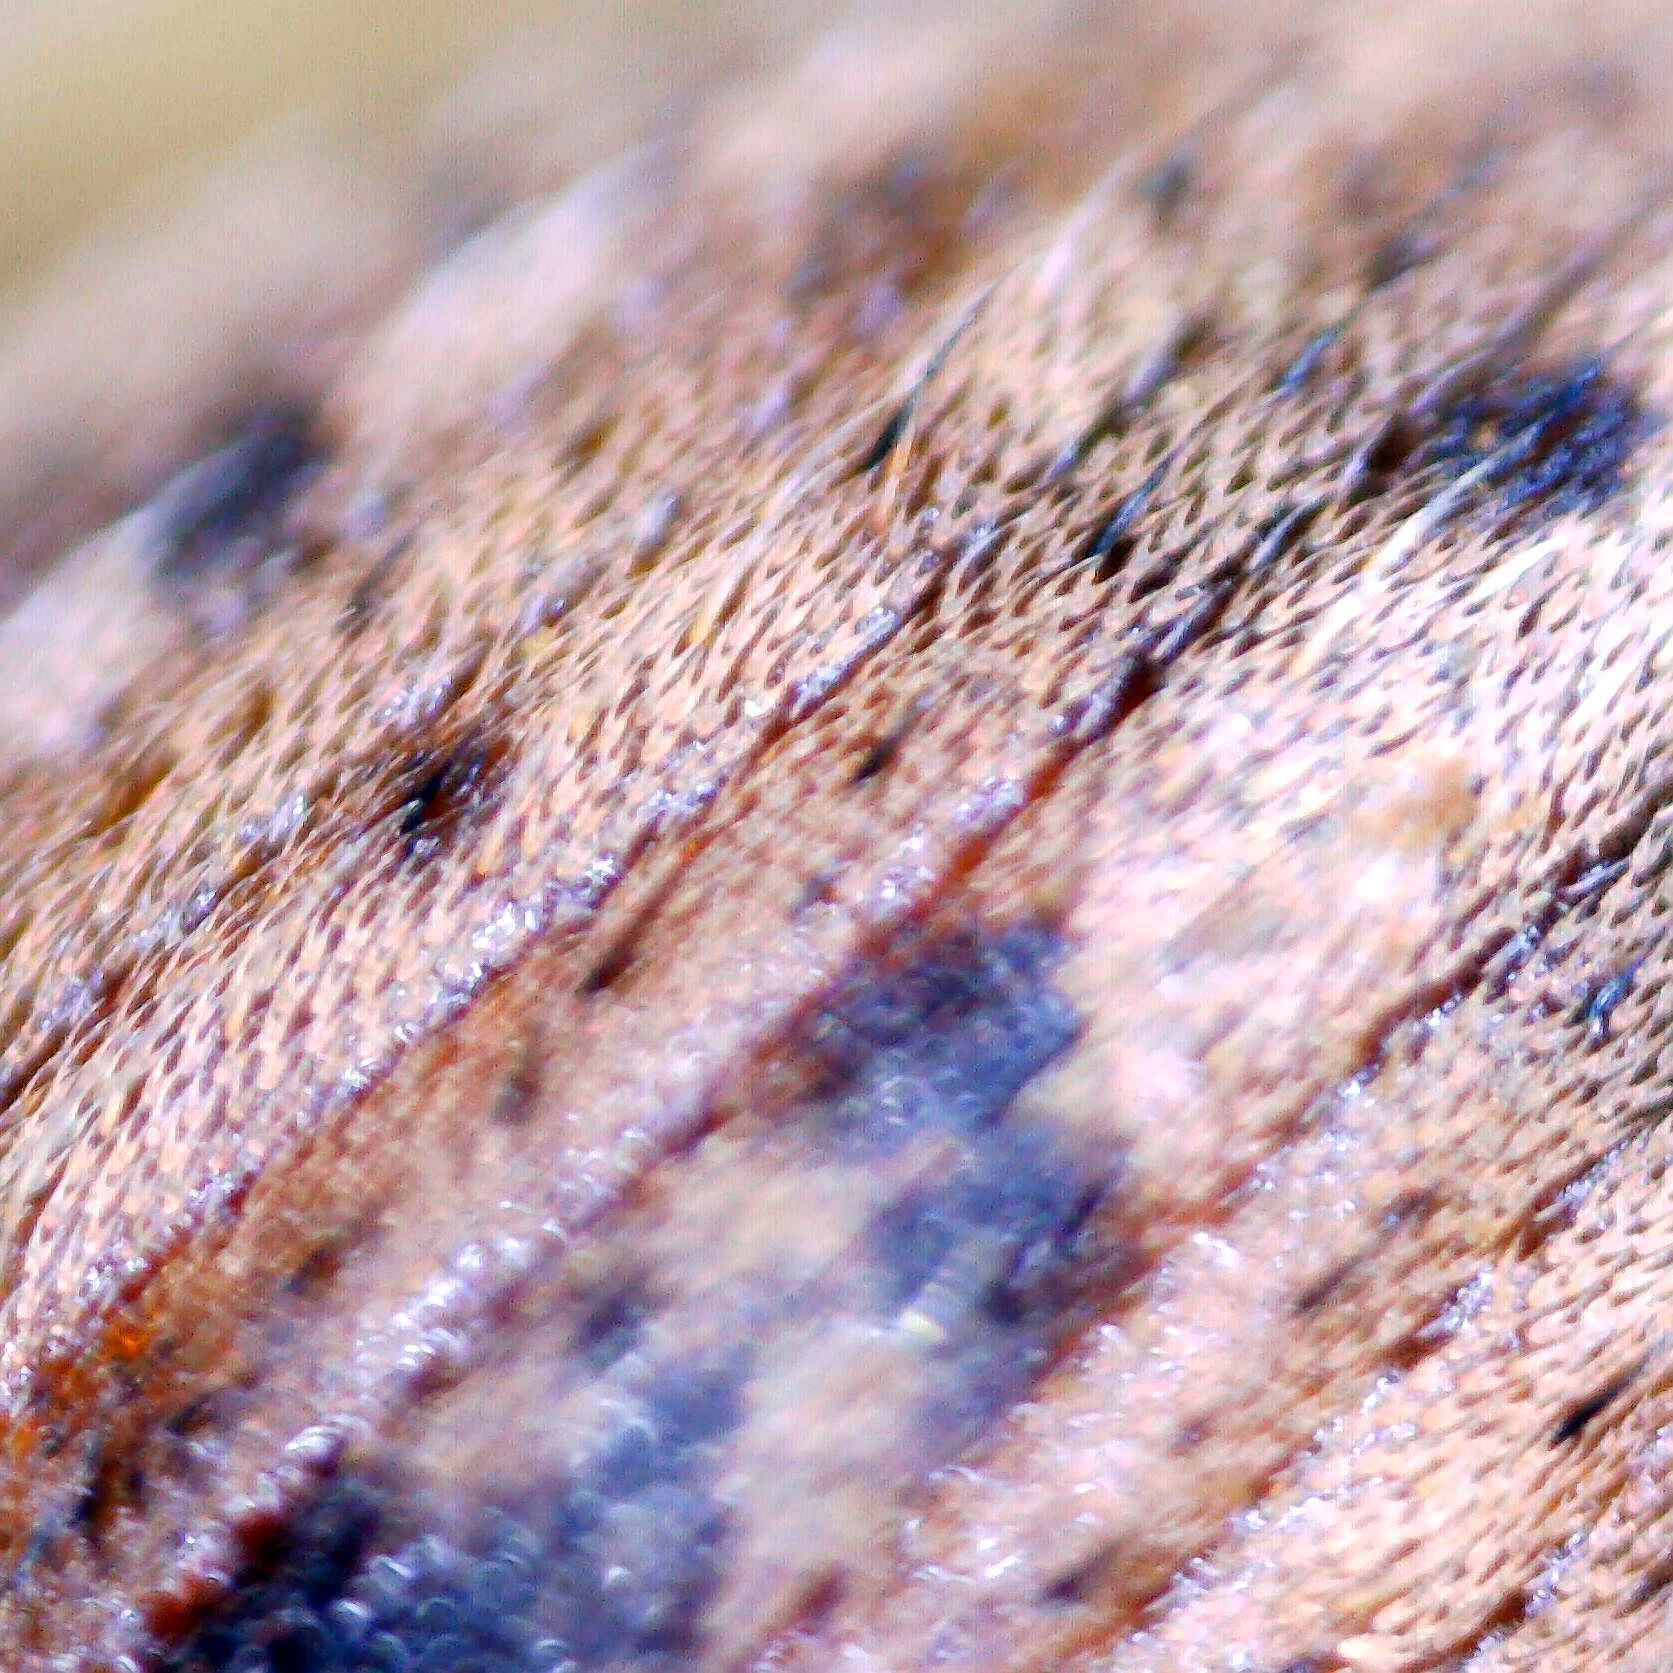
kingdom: Animalia
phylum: Arthropoda
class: Insecta
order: Coleoptera
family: Curculionidae
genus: Hypera
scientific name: Hypera melancholica
